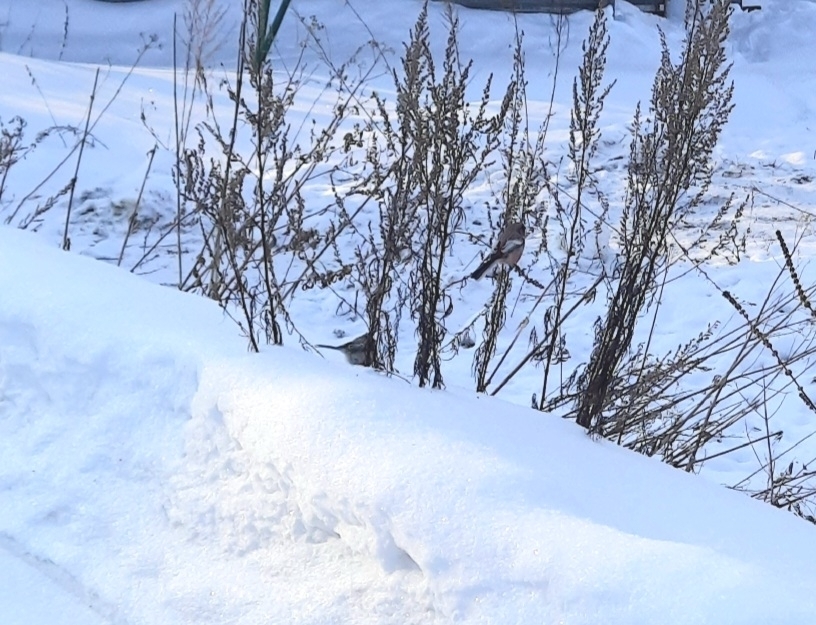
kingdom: Animalia
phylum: Chordata
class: Aves
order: Passeriformes
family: Fringillidae
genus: Carpodacus
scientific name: Carpodacus sibiricus
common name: Long-tailed rosefinch
